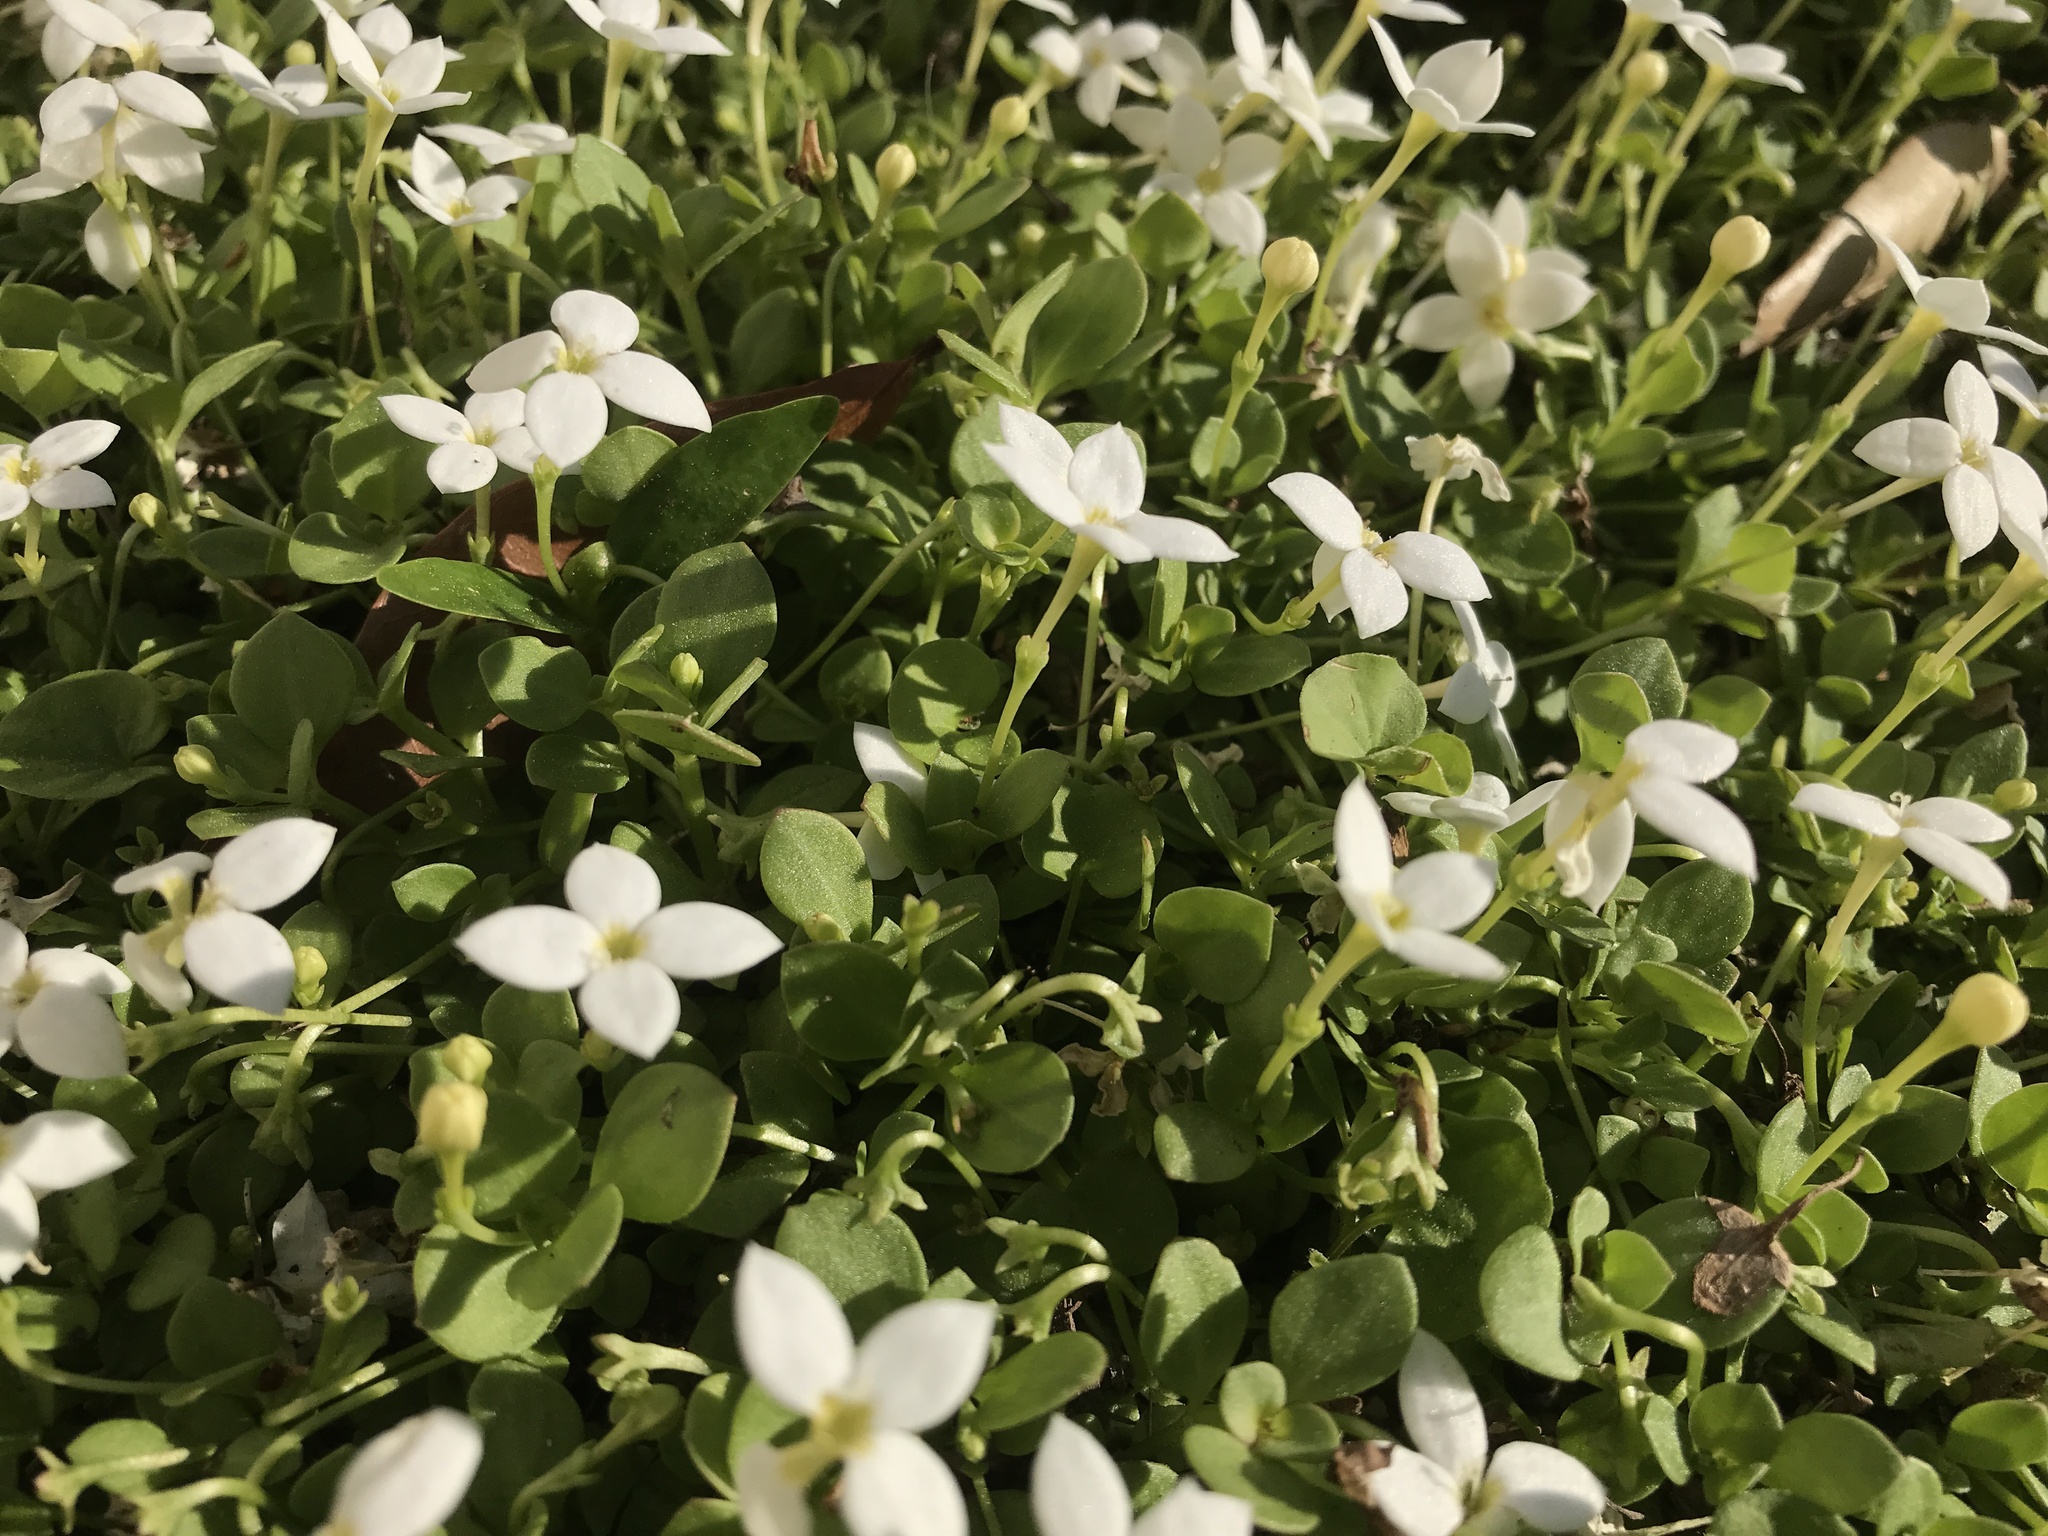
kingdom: Plantae
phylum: Tracheophyta
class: Magnoliopsida
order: Gentianales
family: Rubiaceae
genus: Houstonia
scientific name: Houstonia procumbens
